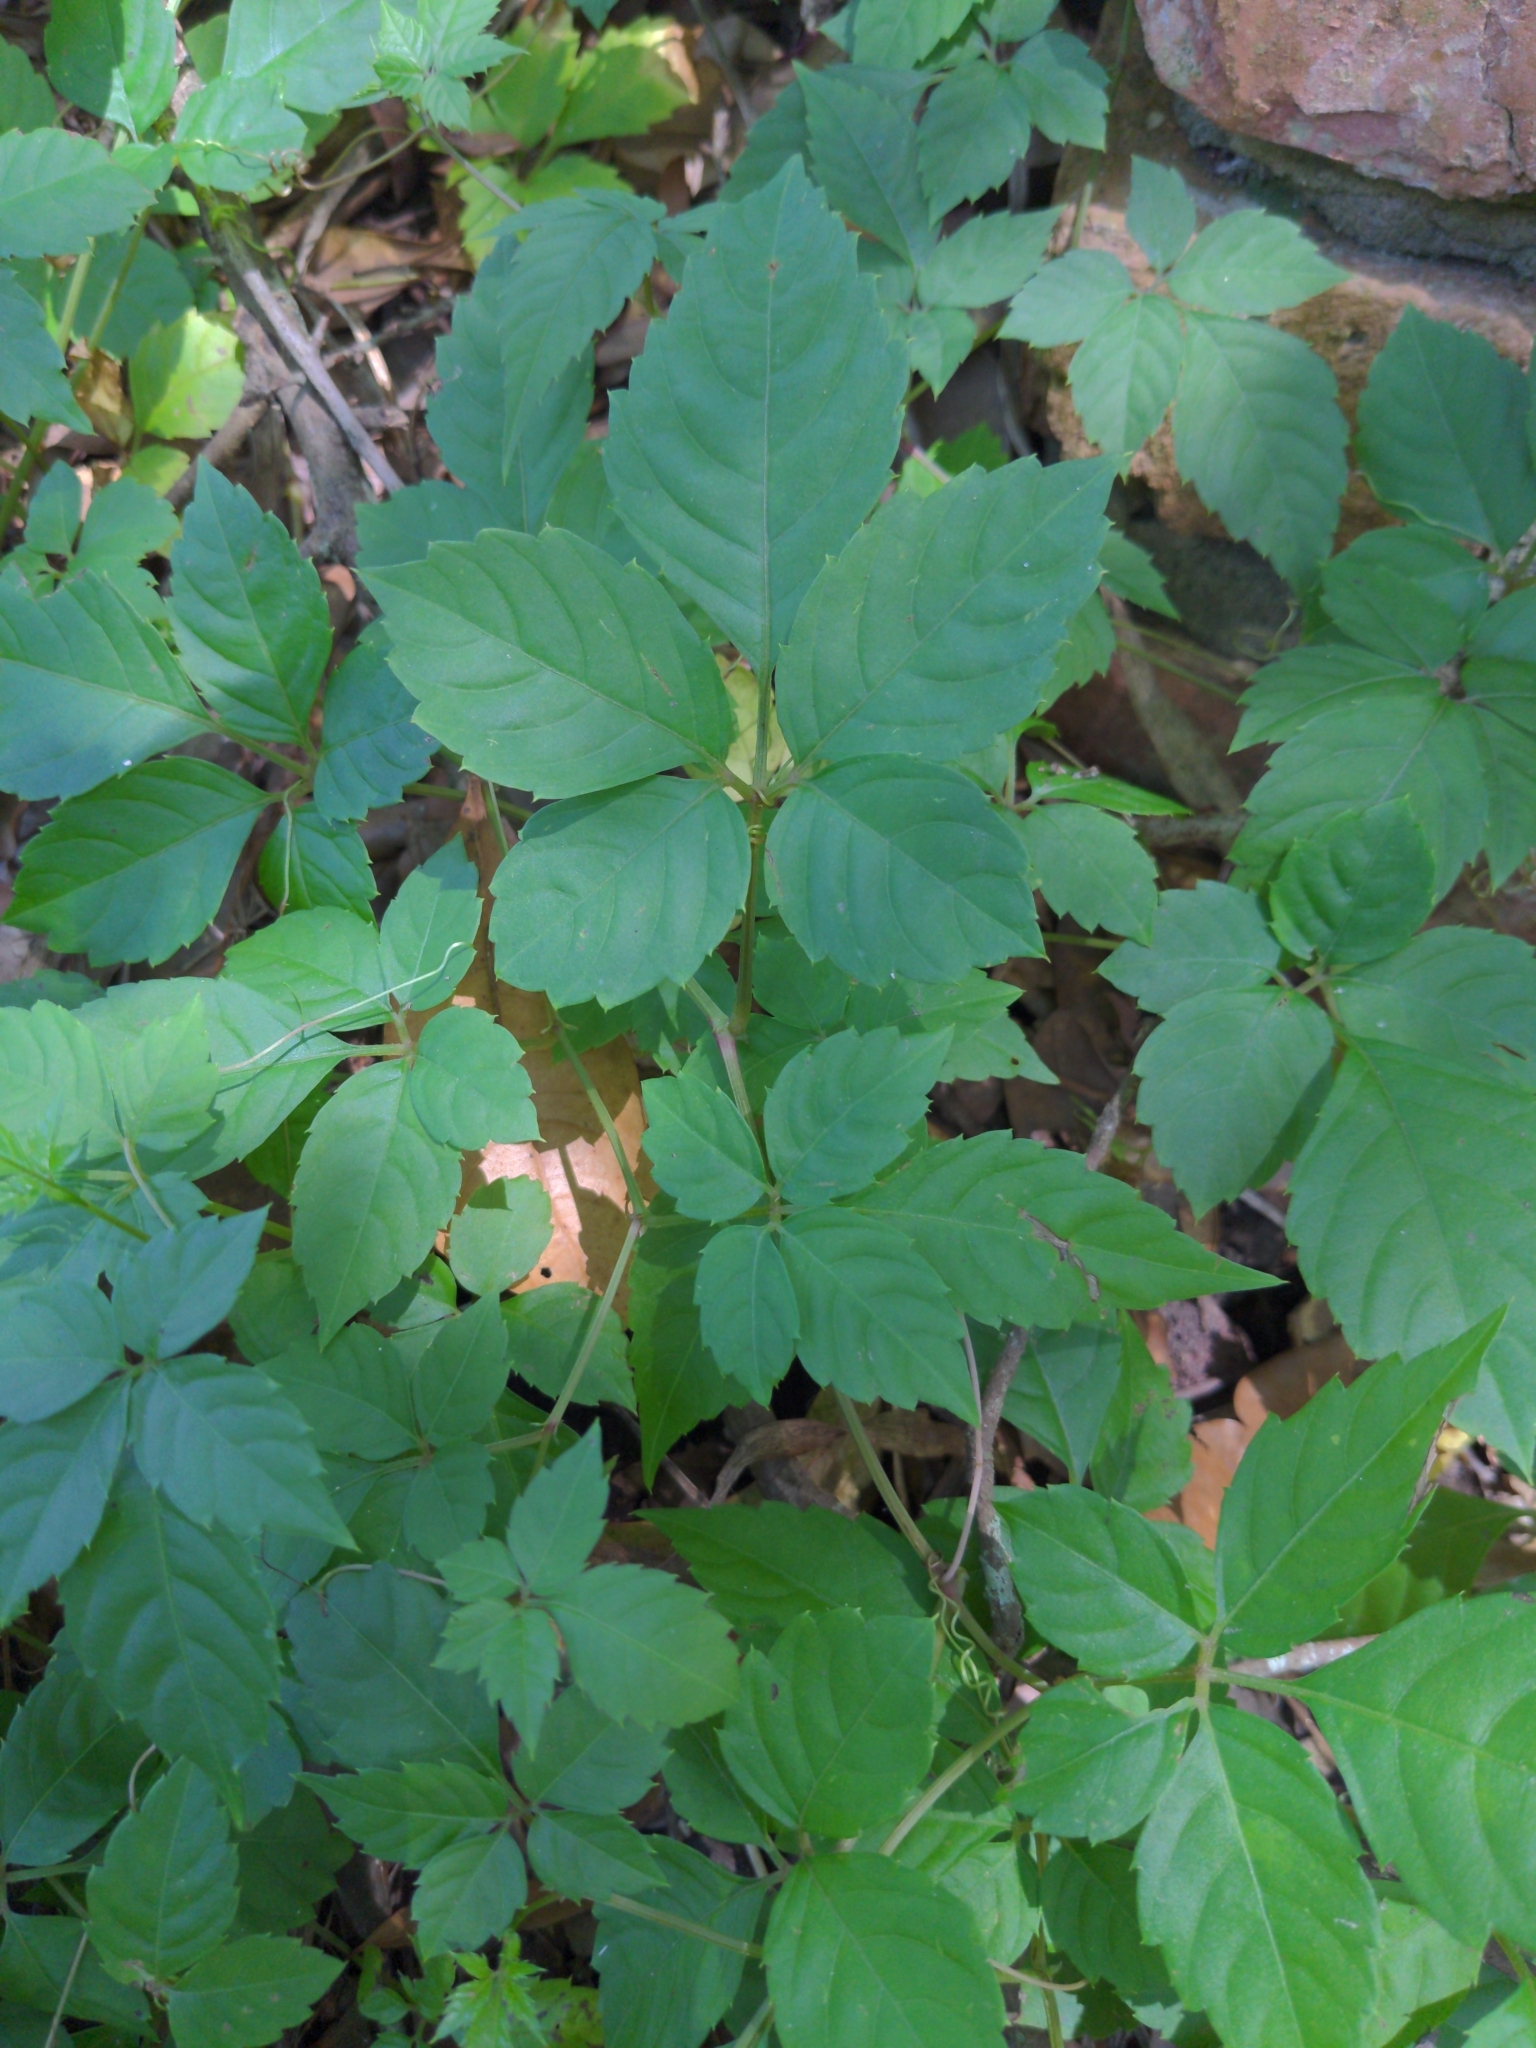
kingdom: Plantae
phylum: Tracheophyta
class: Magnoliopsida
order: Vitales
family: Vitaceae
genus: Causonis
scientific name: Causonis japonica
